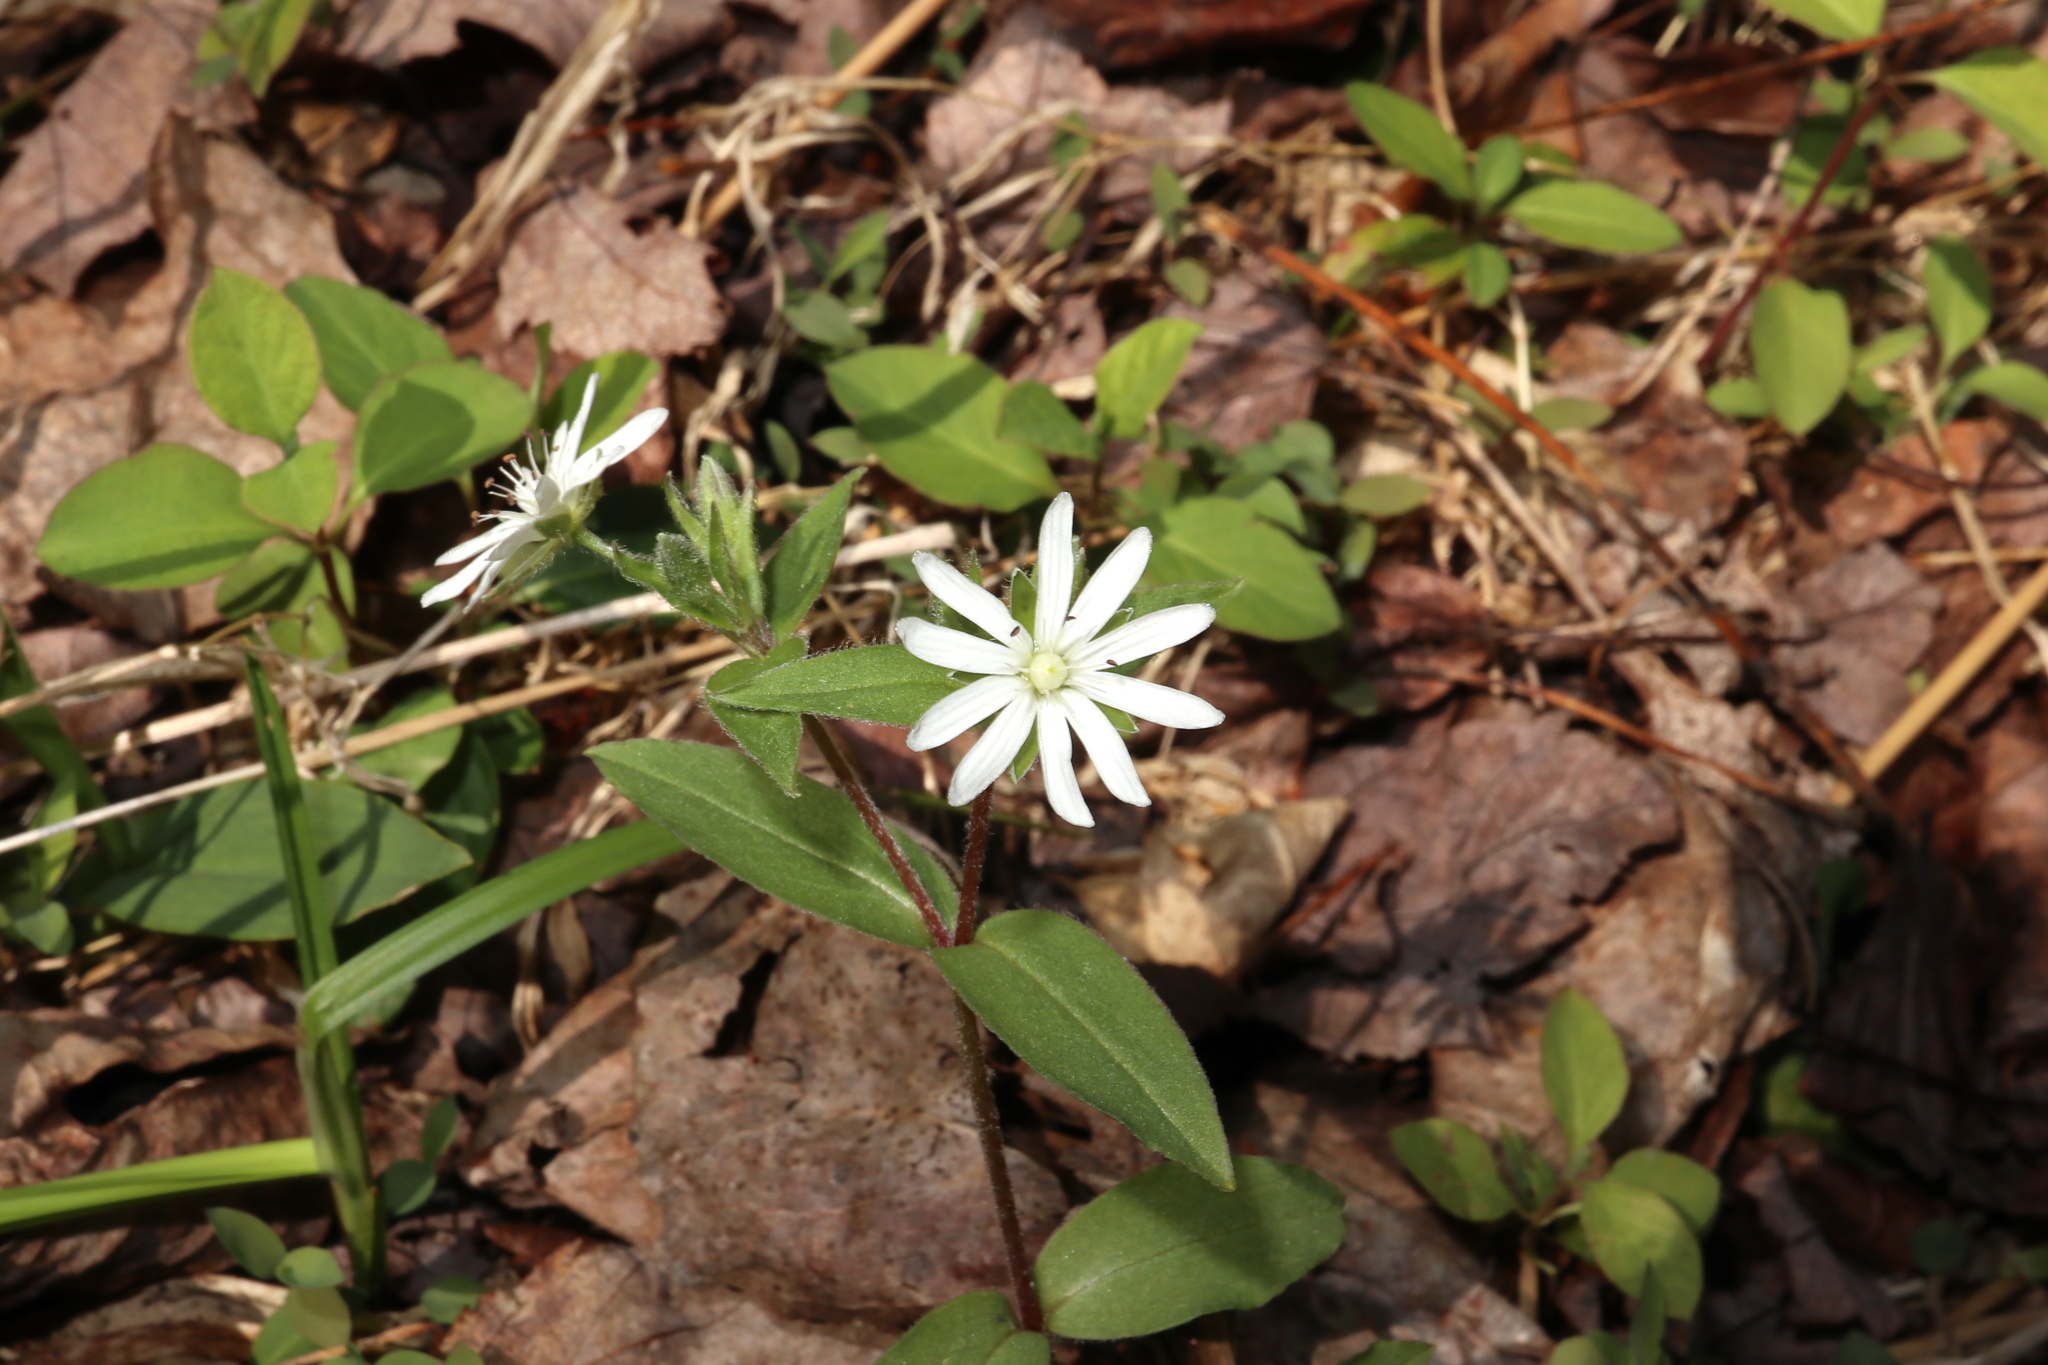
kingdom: Plantae
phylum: Tracheophyta
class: Magnoliopsida
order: Caryophyllales
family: Caryophyllaceae
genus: Stellaria
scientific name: Stellaria pubera
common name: Star chickweed
